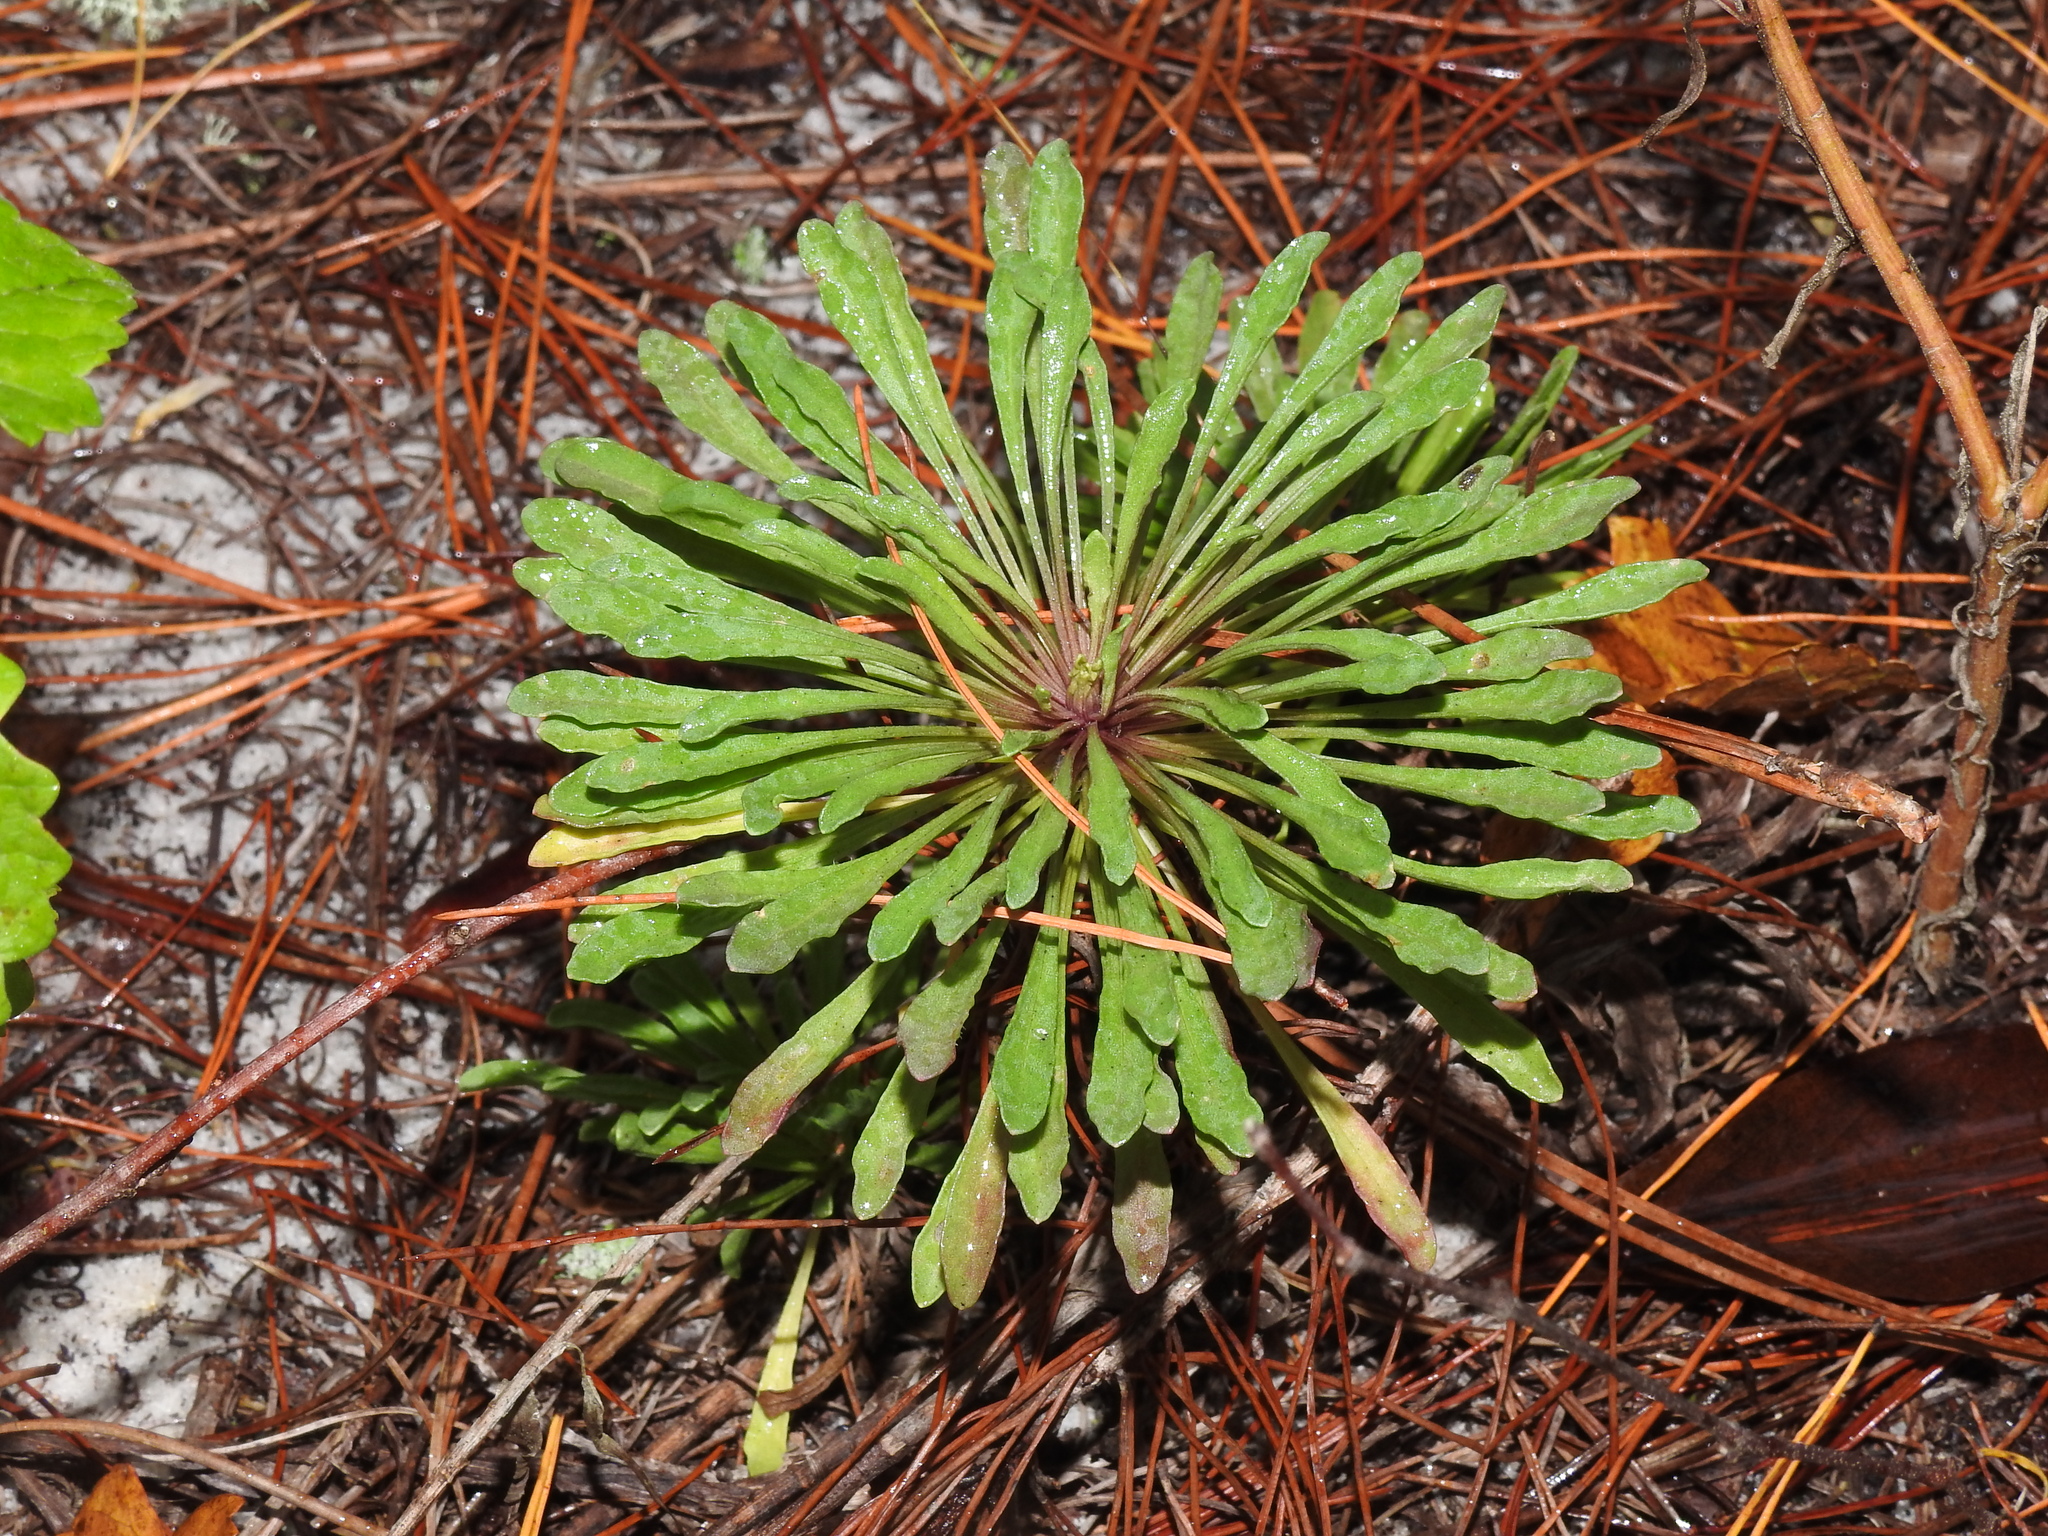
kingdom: Plantae
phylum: Tracheophyta
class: Magnoliopsida
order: Asterales
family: Asteraceae
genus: Balduina
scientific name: Balduina angustifolia
